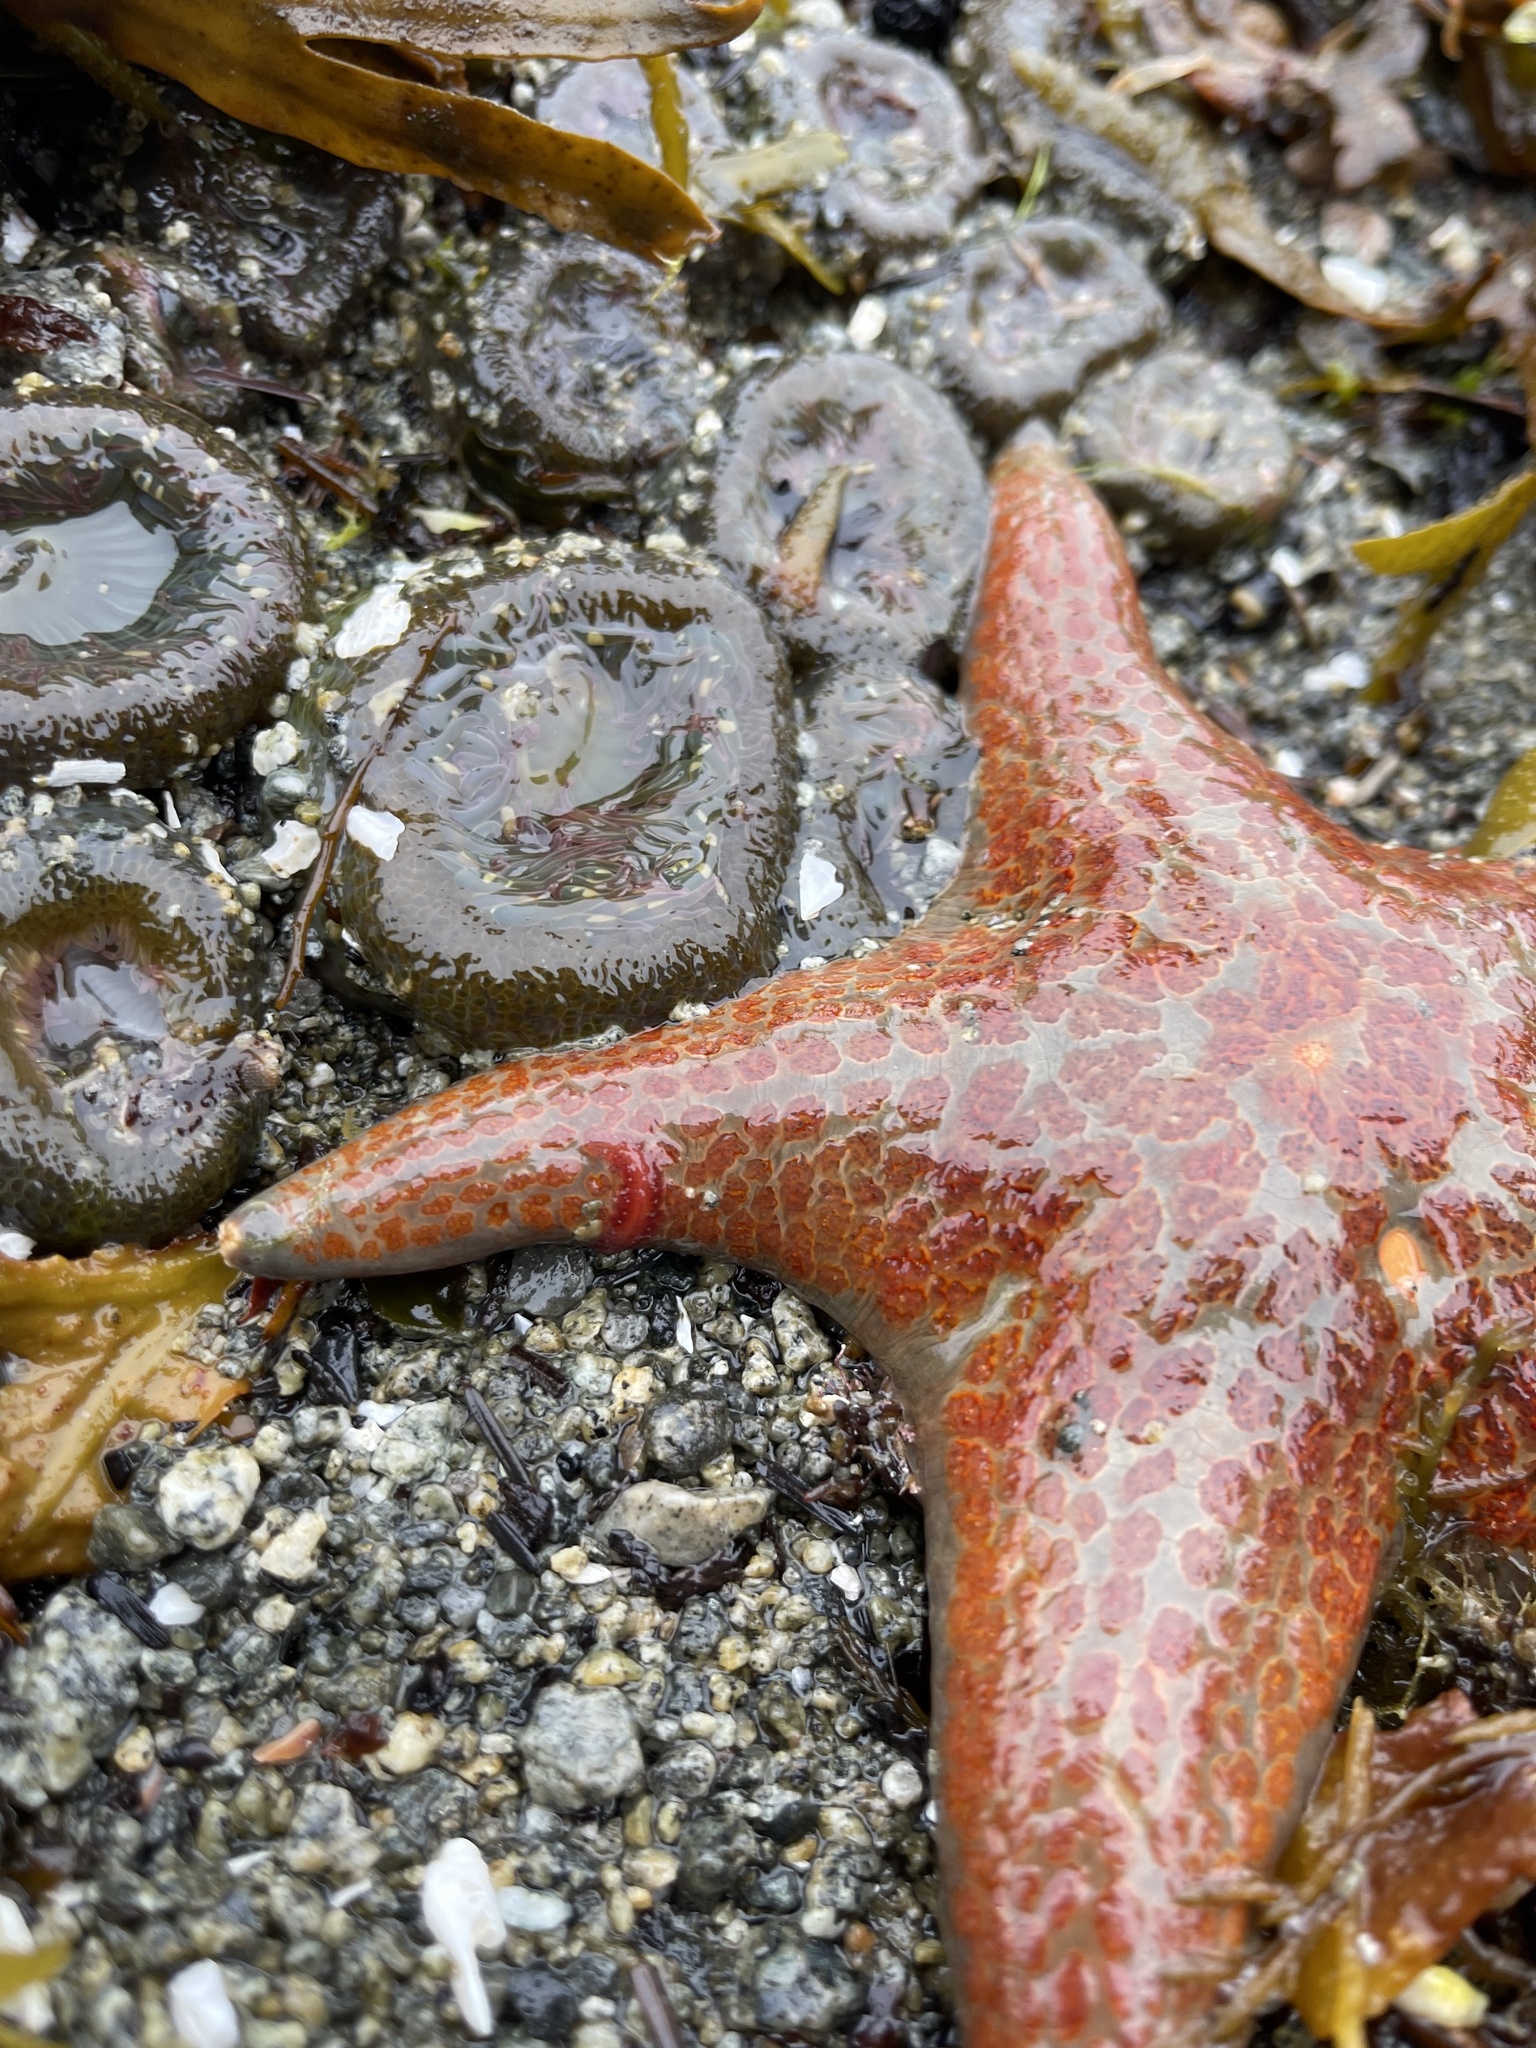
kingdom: Animalia
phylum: Annelida
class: Polychaeta
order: Phyllodocida
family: Polynoidae
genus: Arctonoe
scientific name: Arctonoe pulchra
